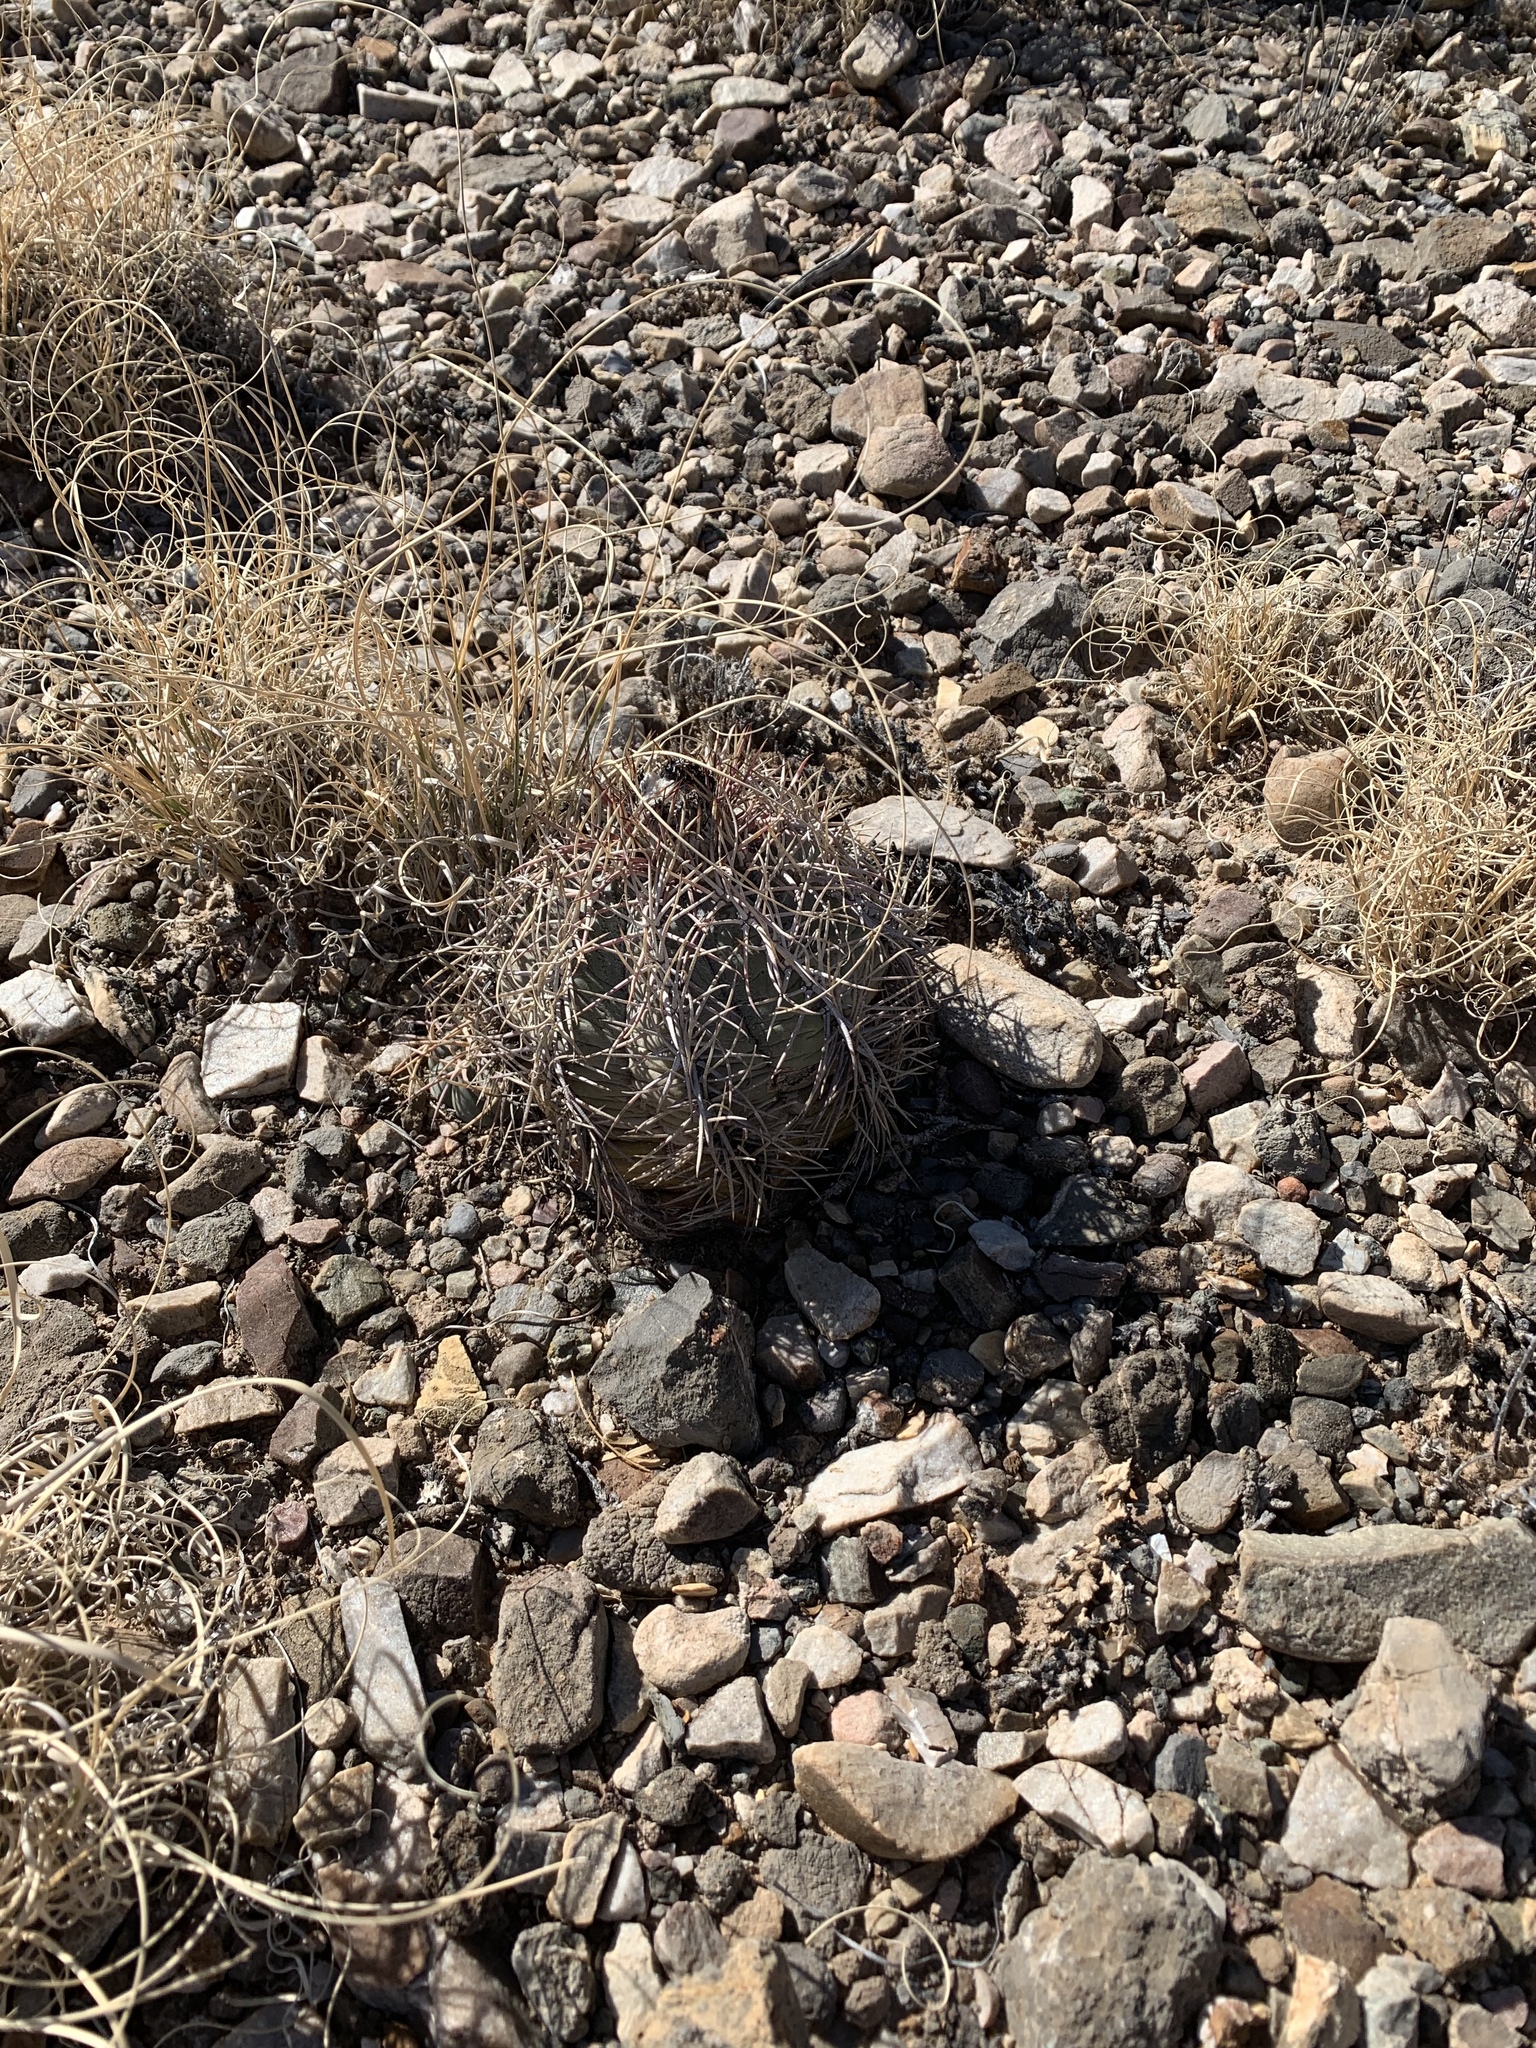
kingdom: Plantae
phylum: Tracheophyta
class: Magnoliopsida
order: Caryophyllales
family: Cactaceae
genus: Echinocactus
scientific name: Echinocactus horizonthalonius
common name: Devilshead
